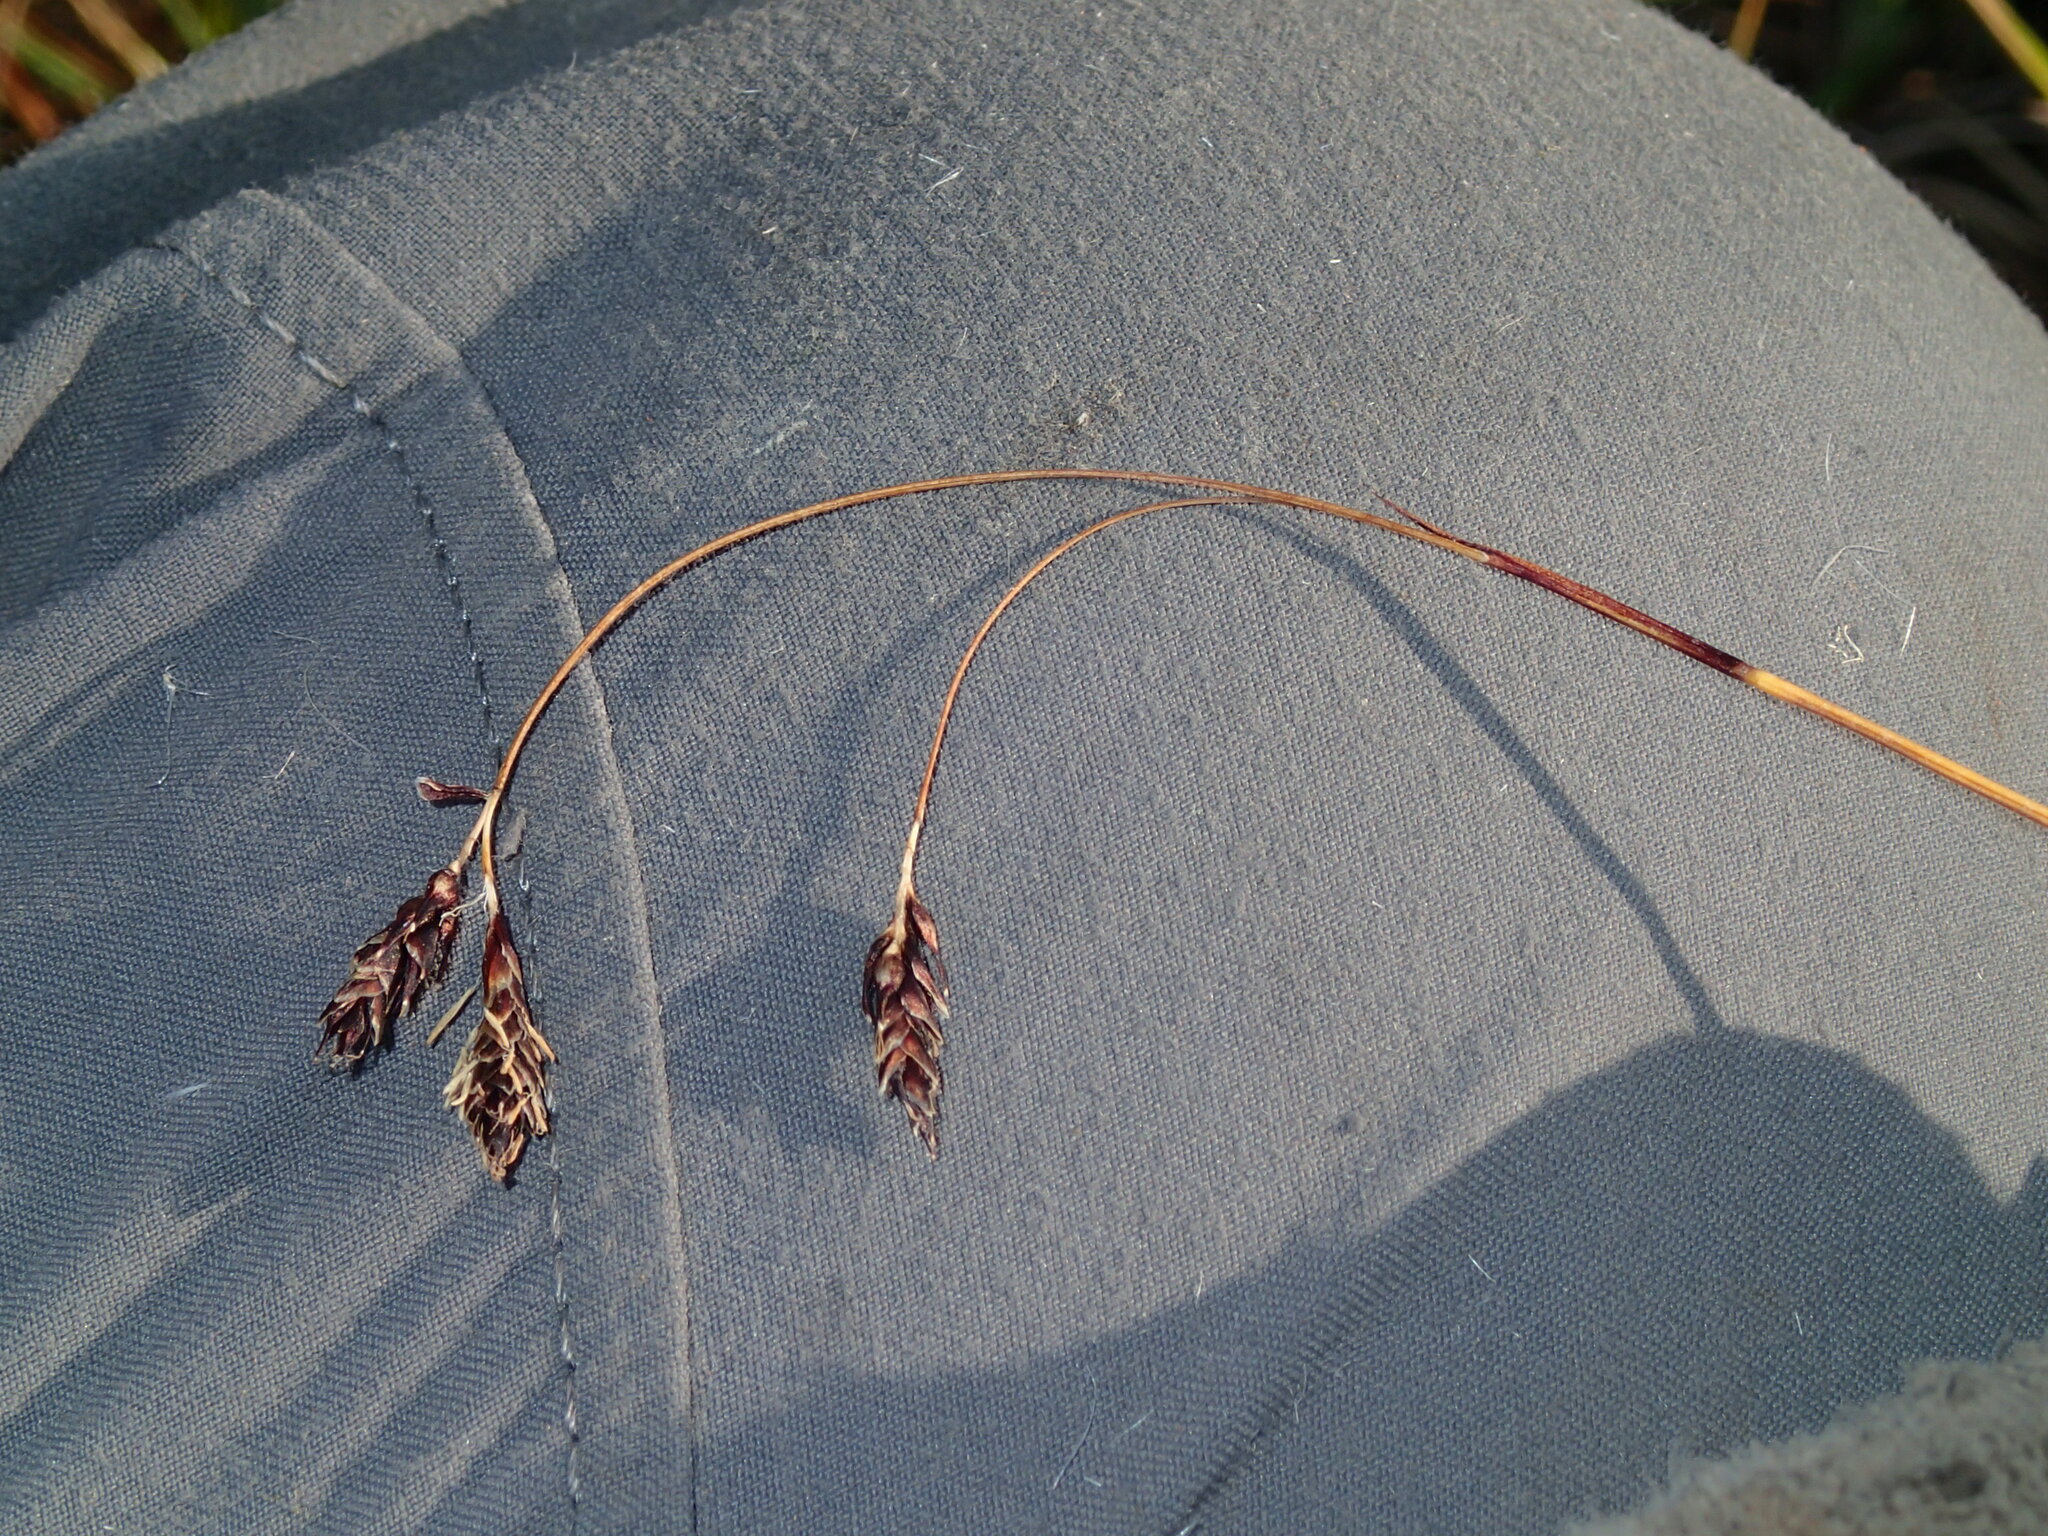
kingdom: Plantae
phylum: Tracheophyta
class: Liliopsida
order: Poales
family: Cyperaceae
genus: Carex
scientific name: Carex fuliginosa
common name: Few-flowered sedge
